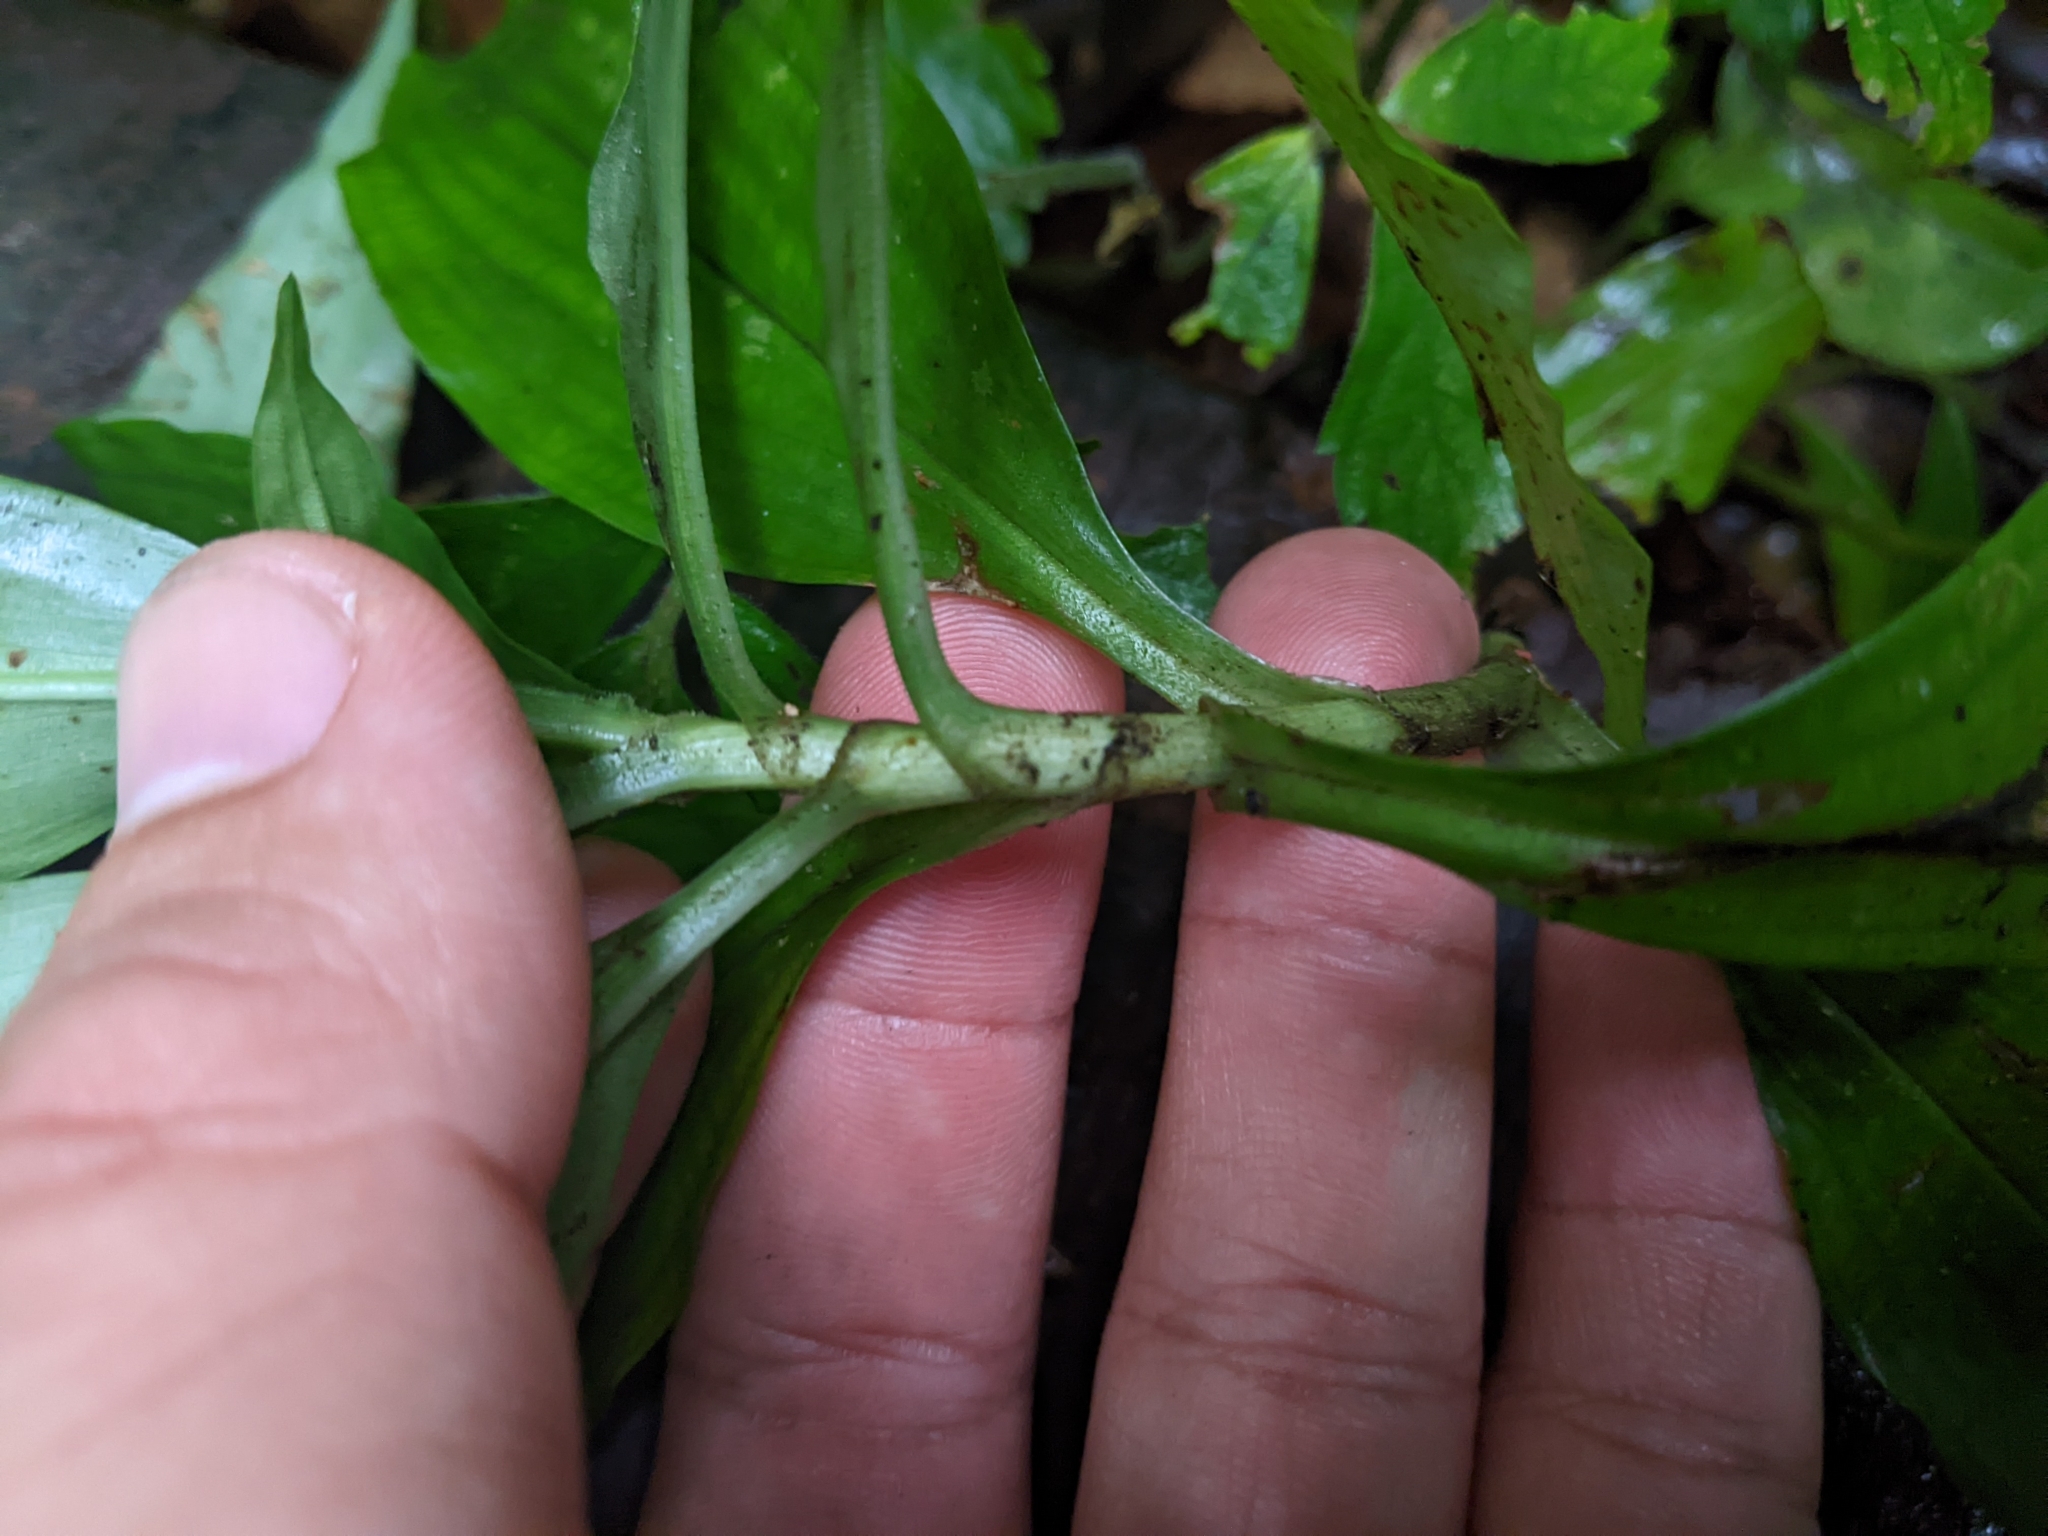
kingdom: Plantae
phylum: Tracheophyta
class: Liliopsida
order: Commelinales
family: Commelinaceae
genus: Pollia
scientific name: Pollia miranda
